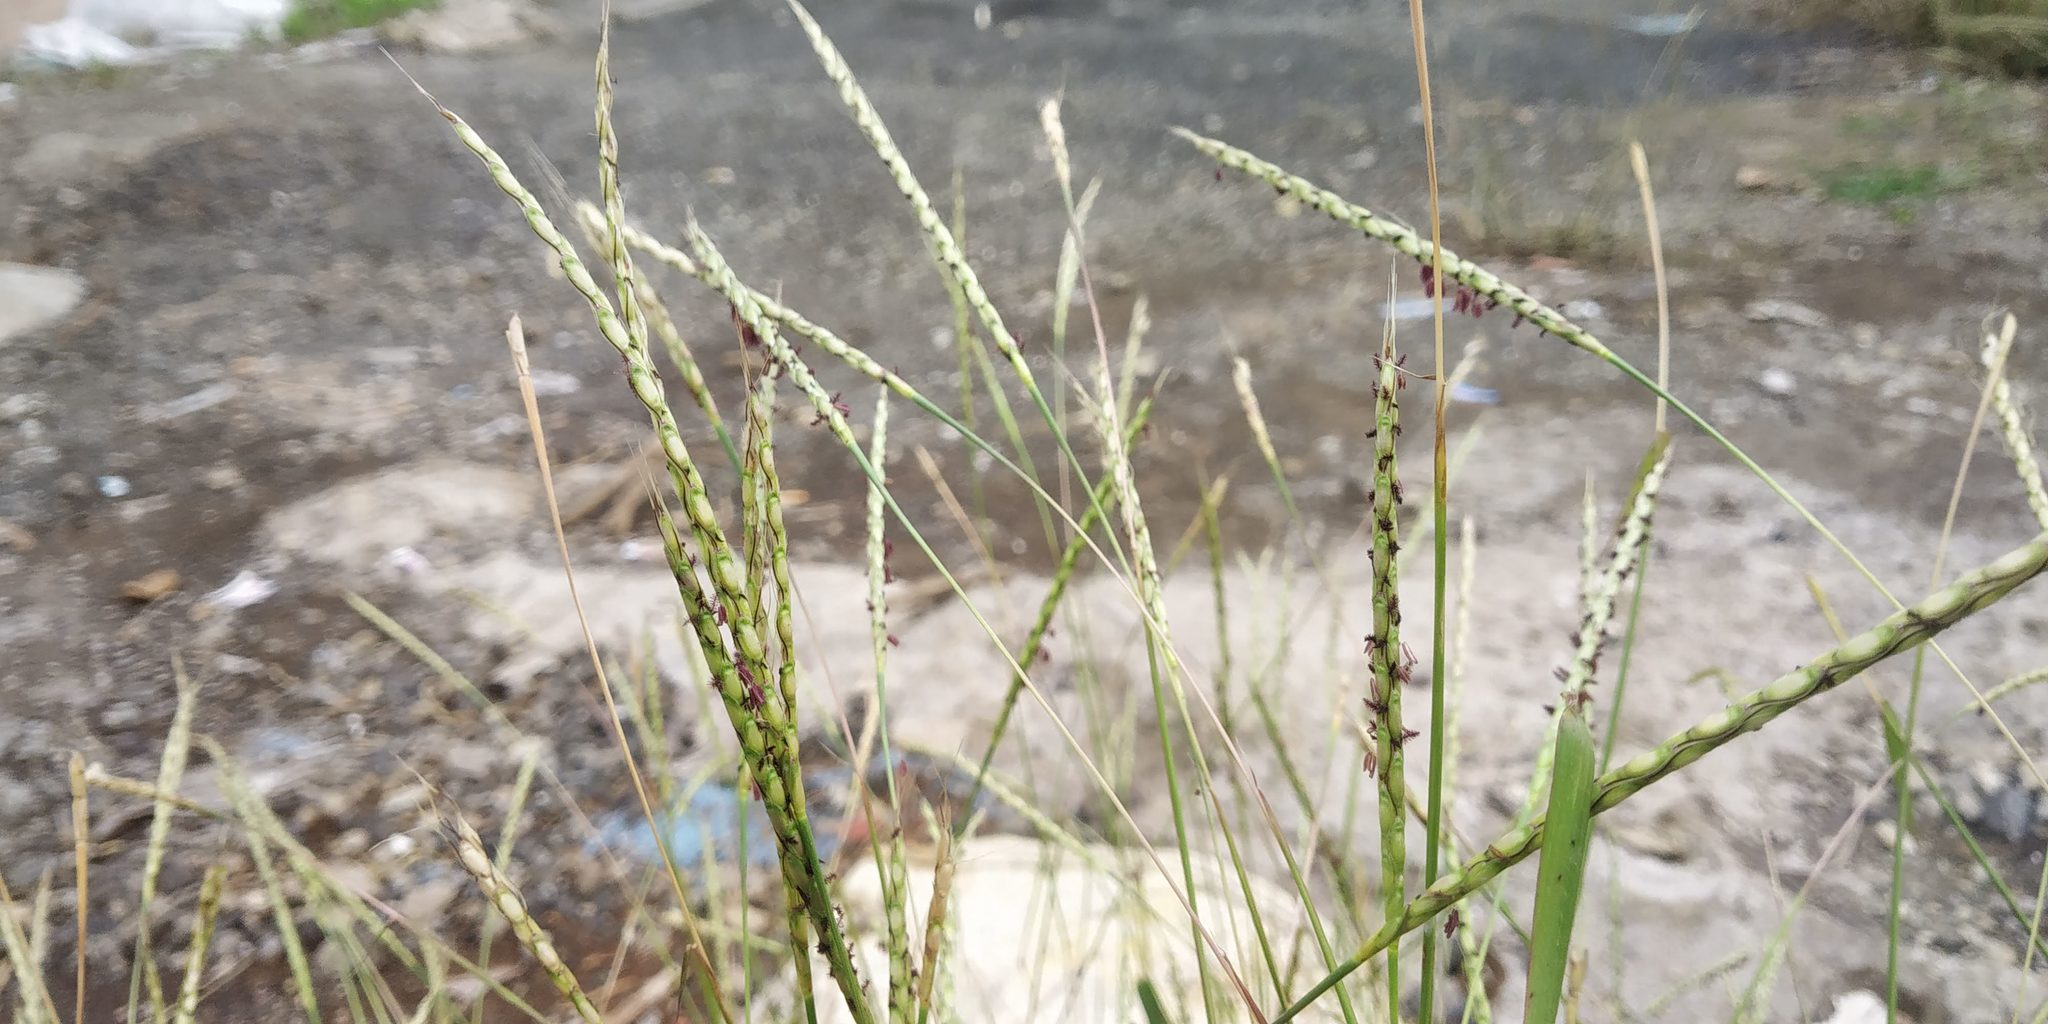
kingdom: Plantae
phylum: Tracheophyta
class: Liliopsida
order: Poales
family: Poaceae
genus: Ischaemum
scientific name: Ischaemum molle
